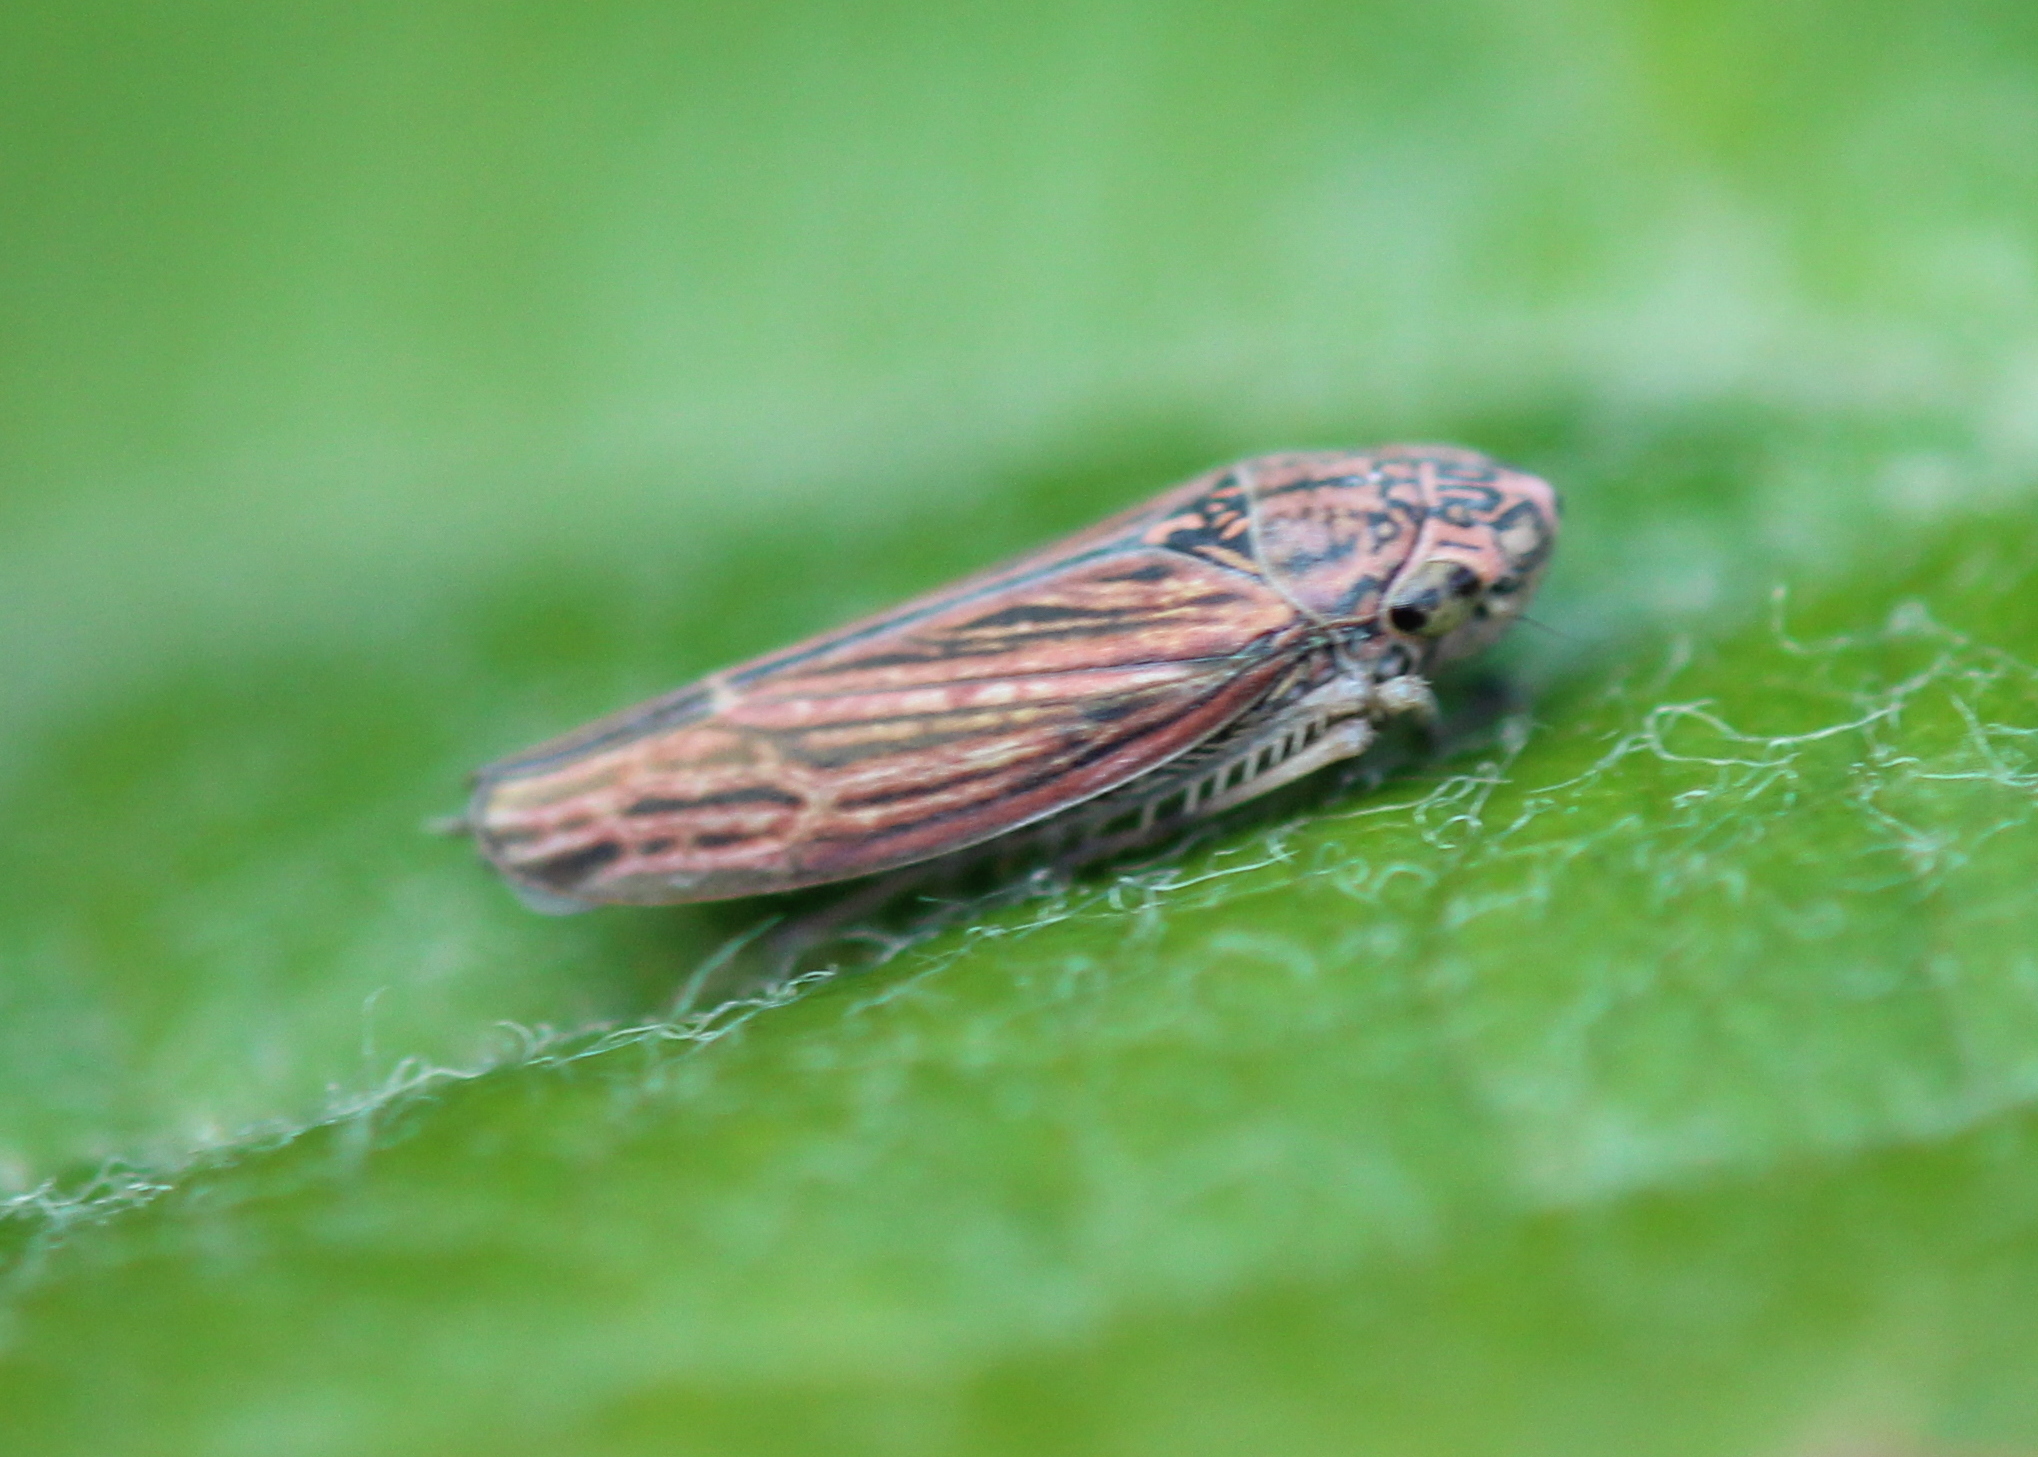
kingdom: Animalia
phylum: Arthropoda
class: Insecta
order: Hemiptera
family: Cicadellidae
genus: Neokolla
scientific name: Neokolla hieroglyphica
